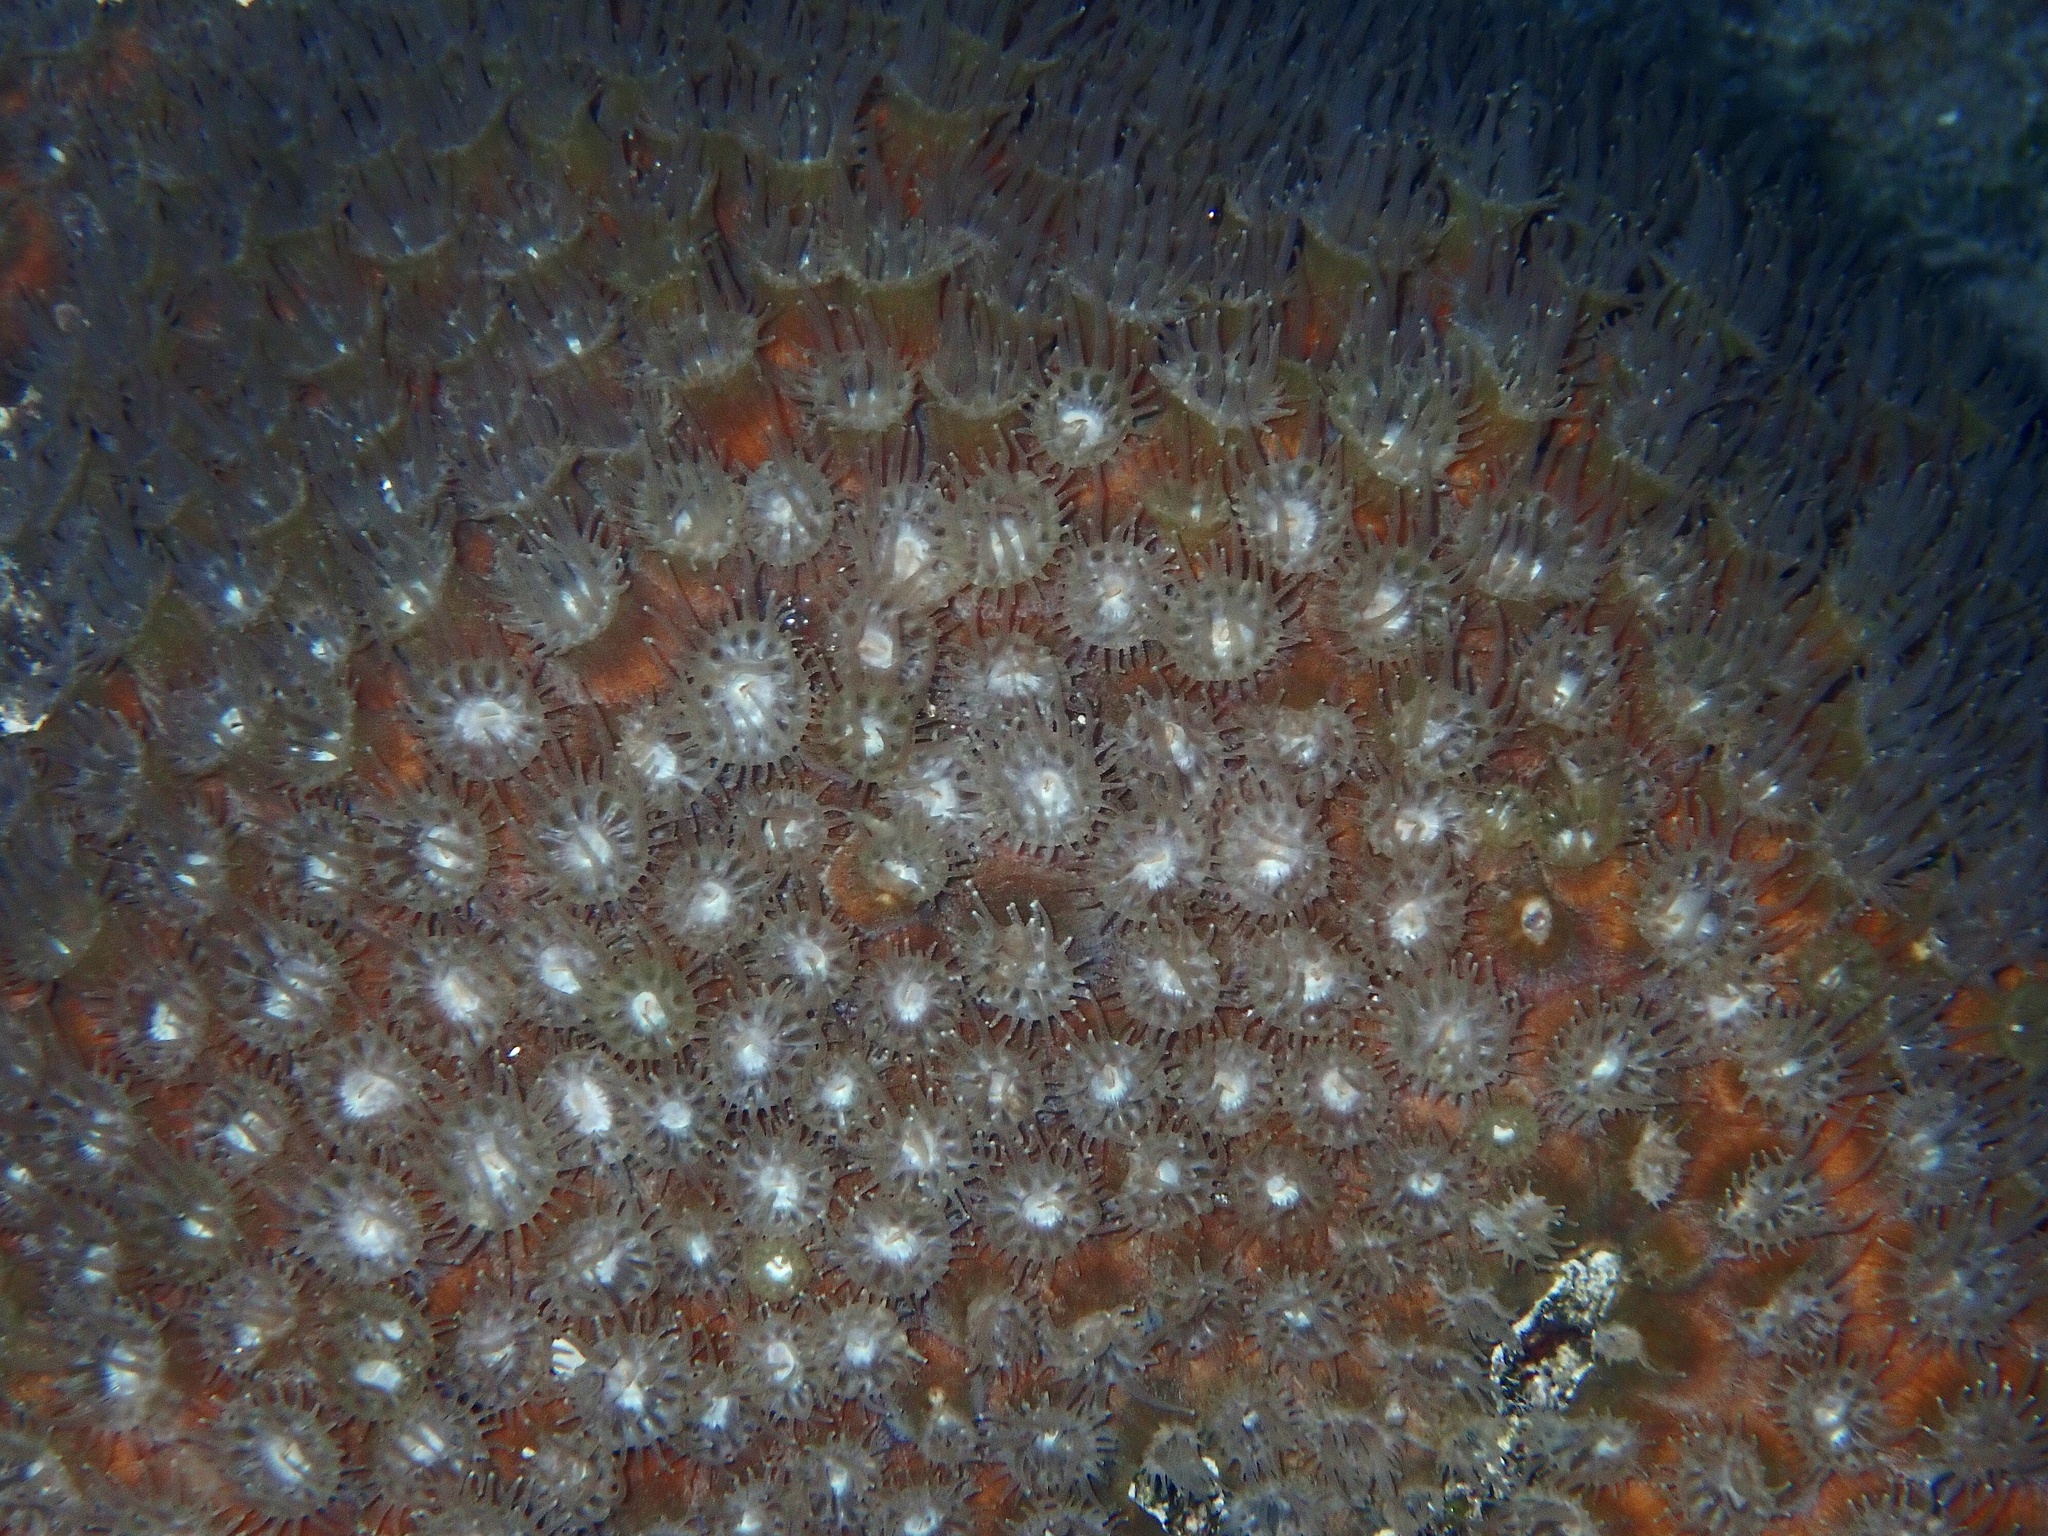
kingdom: Animalia
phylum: Cnidaria
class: Anthozoa
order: Scleractinia
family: Montastraeidae
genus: Montastraea
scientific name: Montastraea cavernosa
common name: Great star coral
